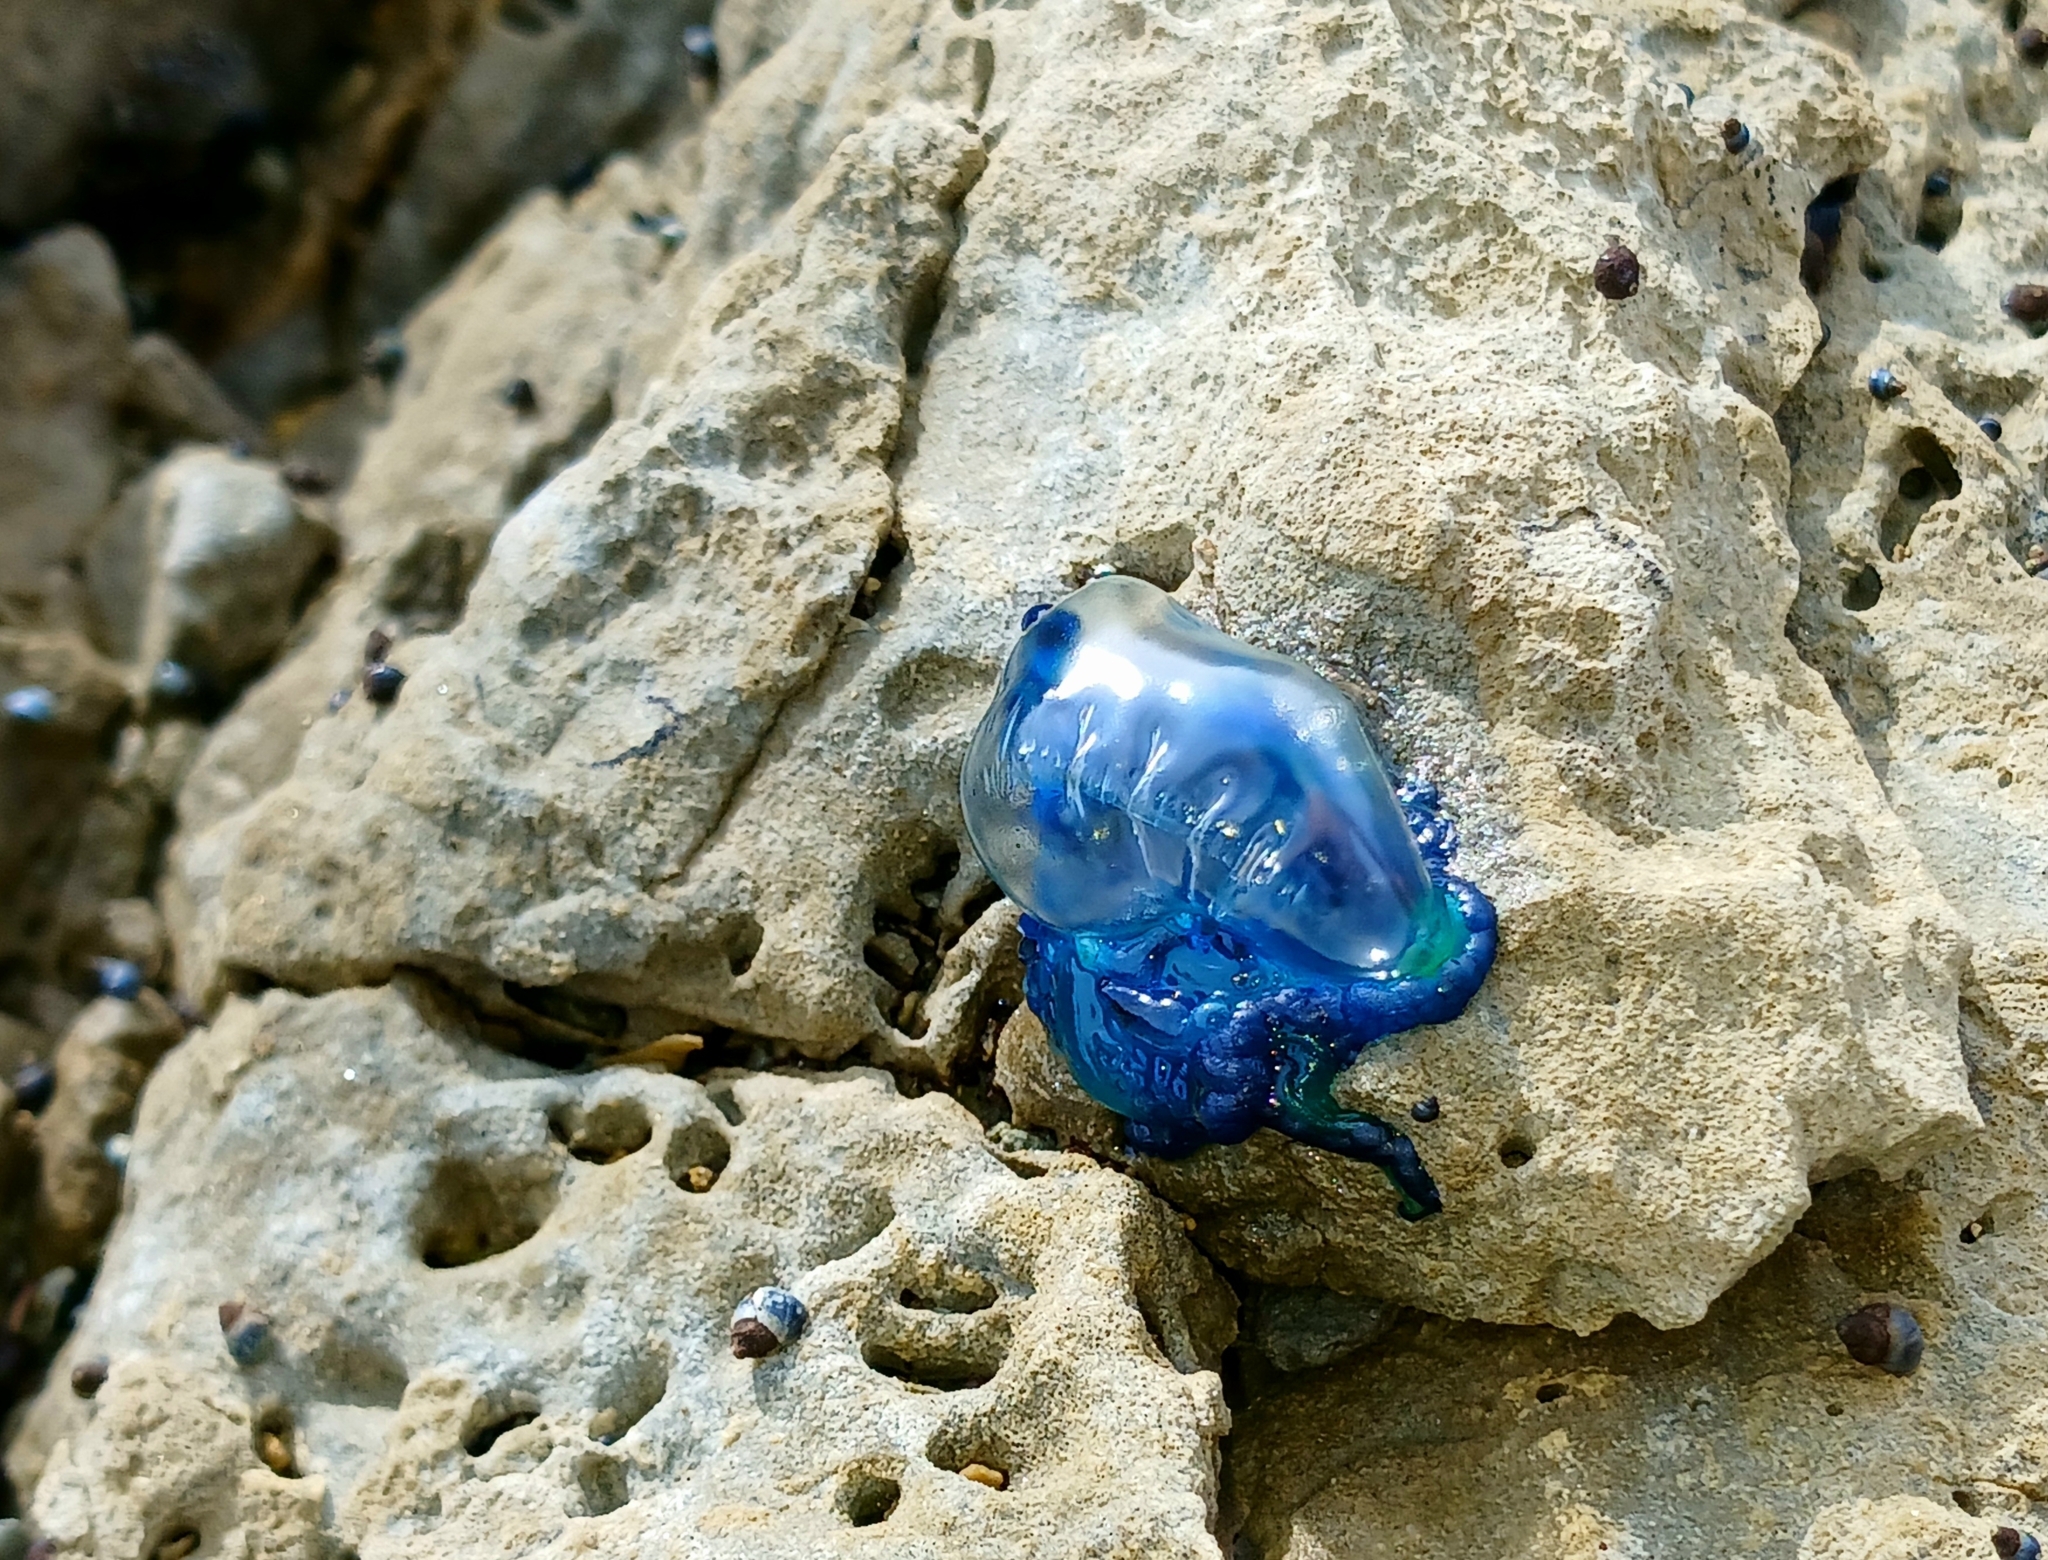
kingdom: Animalia
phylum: Cnidaria
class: Hydrozoa
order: Siphonophorae
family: Physaliidae
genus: Physalia
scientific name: Physalia physalis
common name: Portuguese man-of-war
